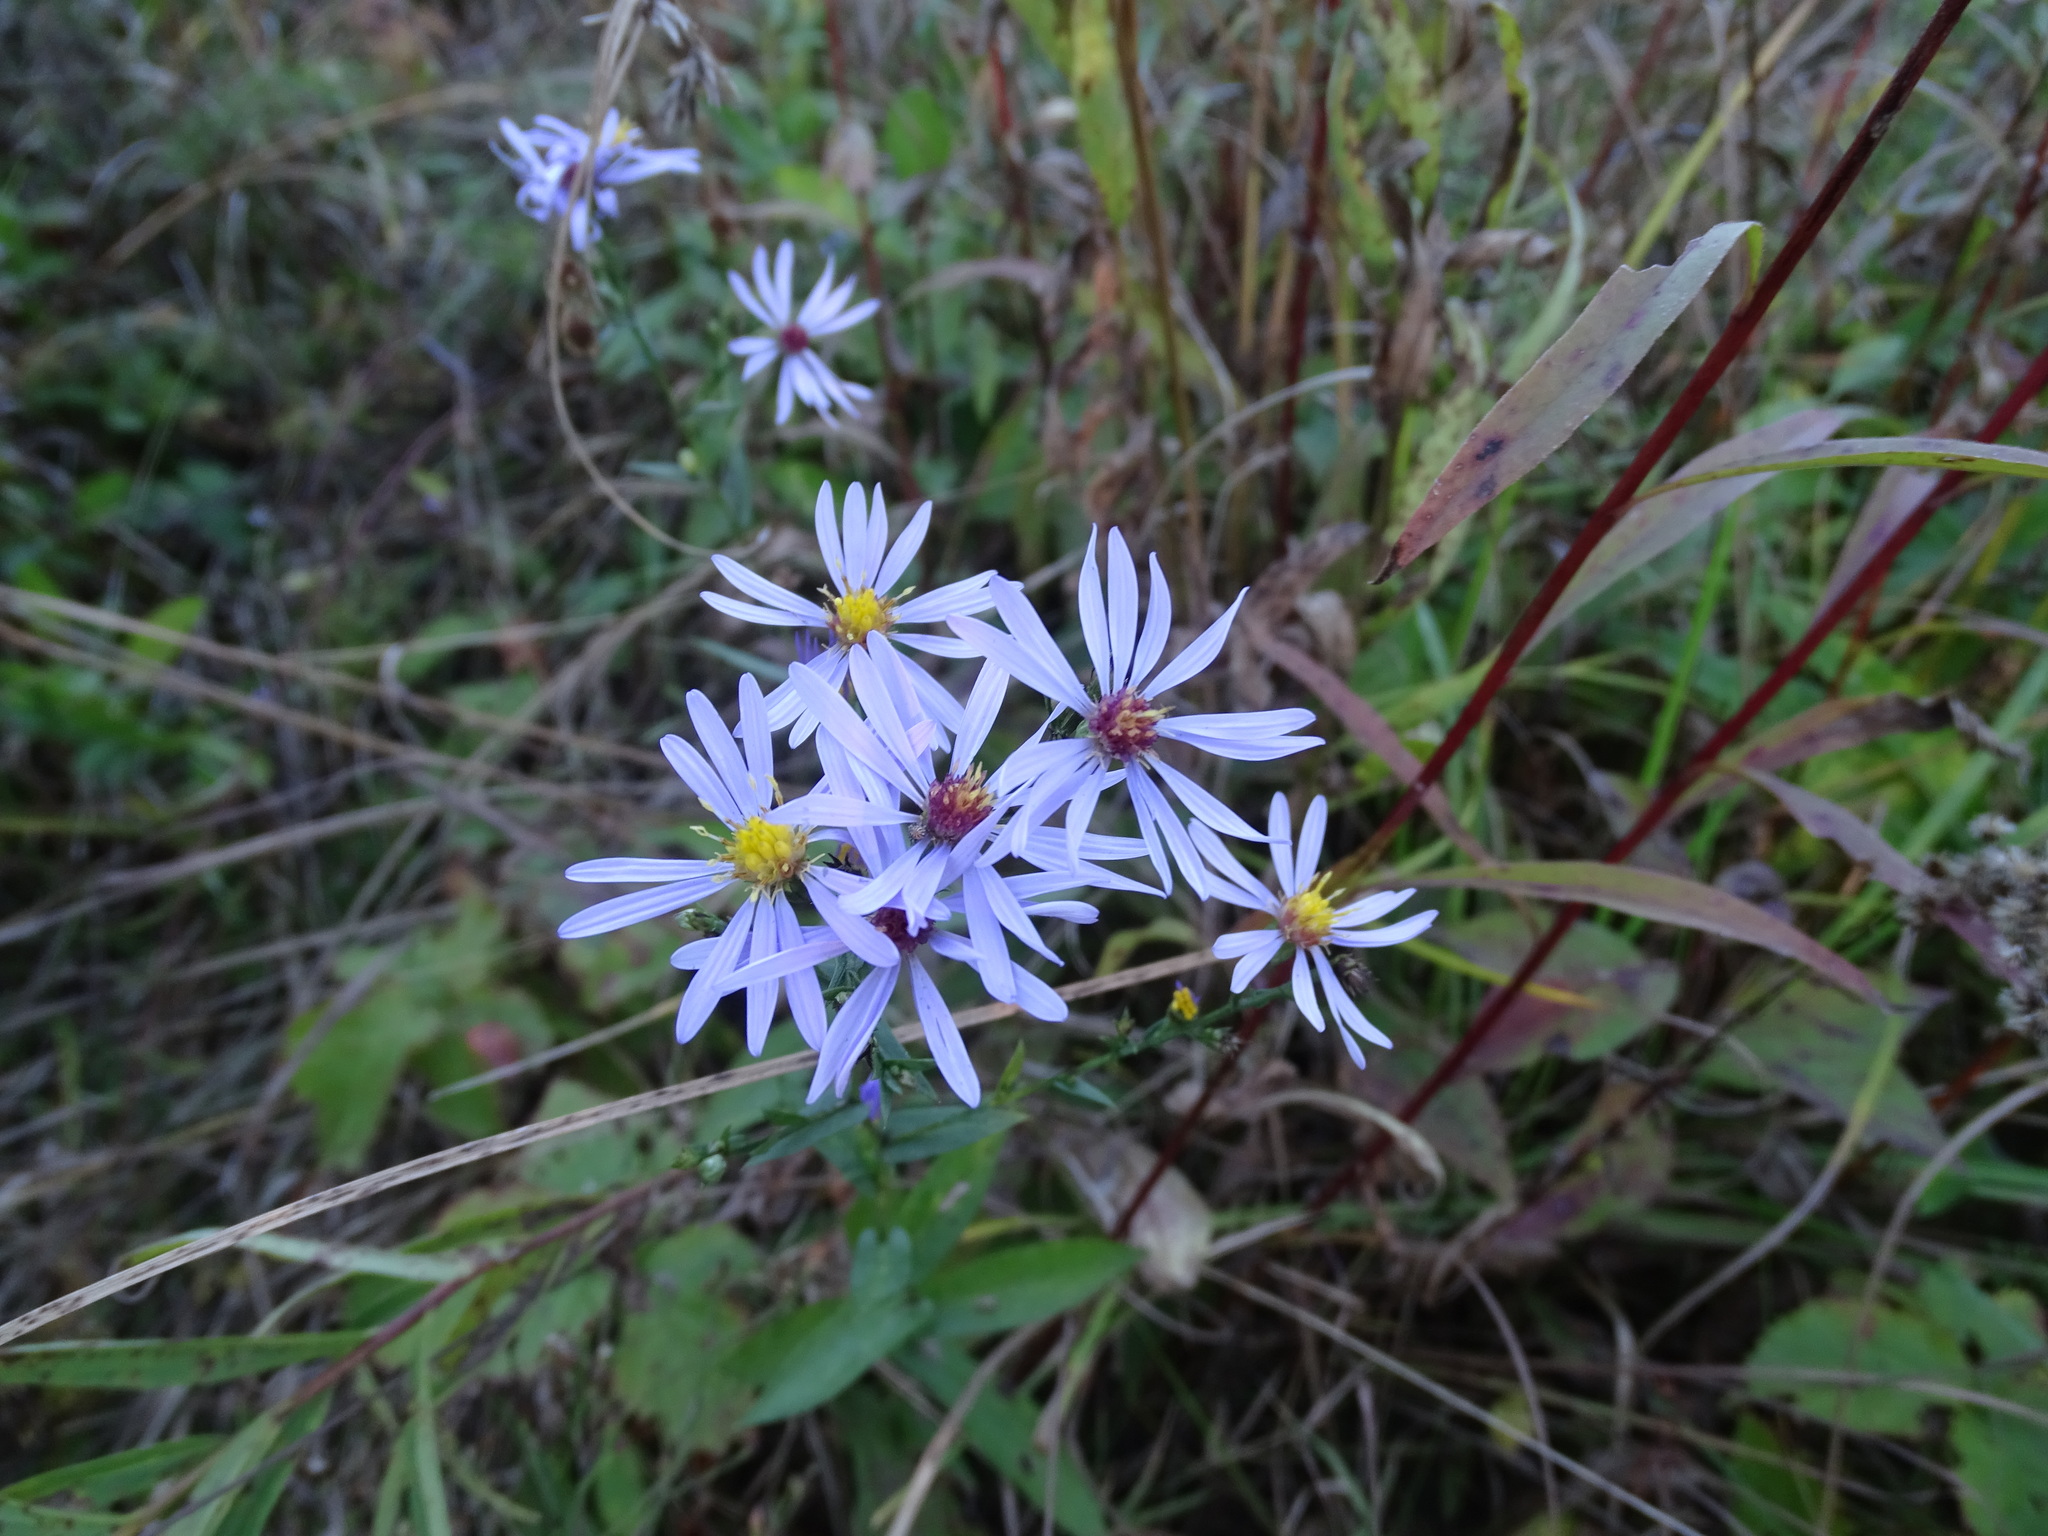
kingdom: Plantae
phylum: Tracheophyta
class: Magnoliopsida
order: Asterales
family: Asteraceae
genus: Symphyotrichum
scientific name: Symphyotrichum laeve
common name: Glaucous aster
